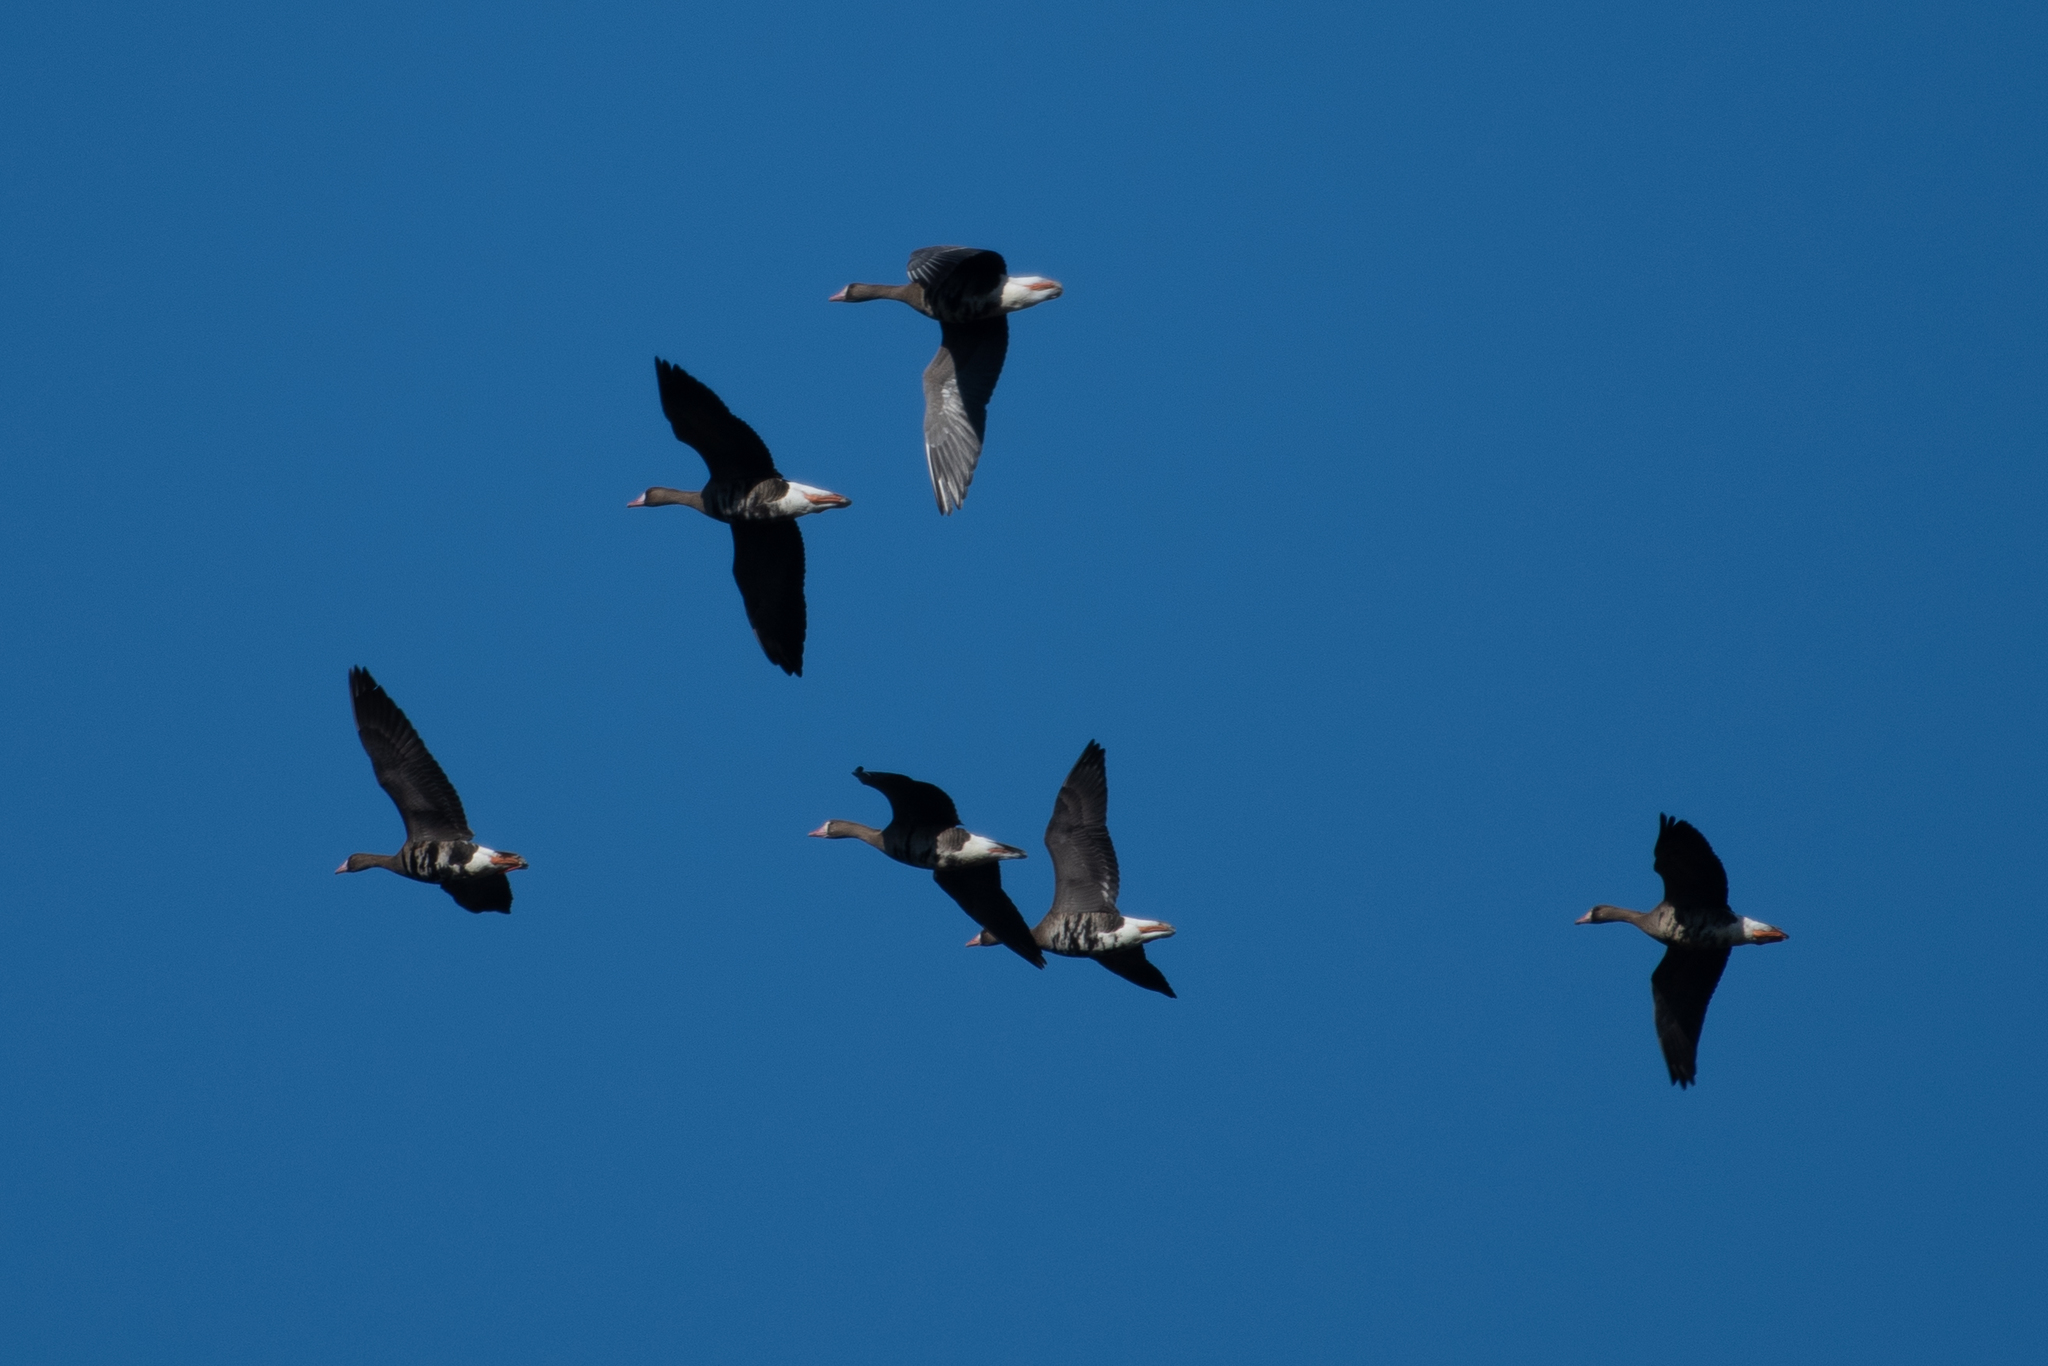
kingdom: Animalia
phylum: Chordata
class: Aves
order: Anseriformes
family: Anatidae
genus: Anser
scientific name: Anser albifrons
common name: Greater white-fronted goose
